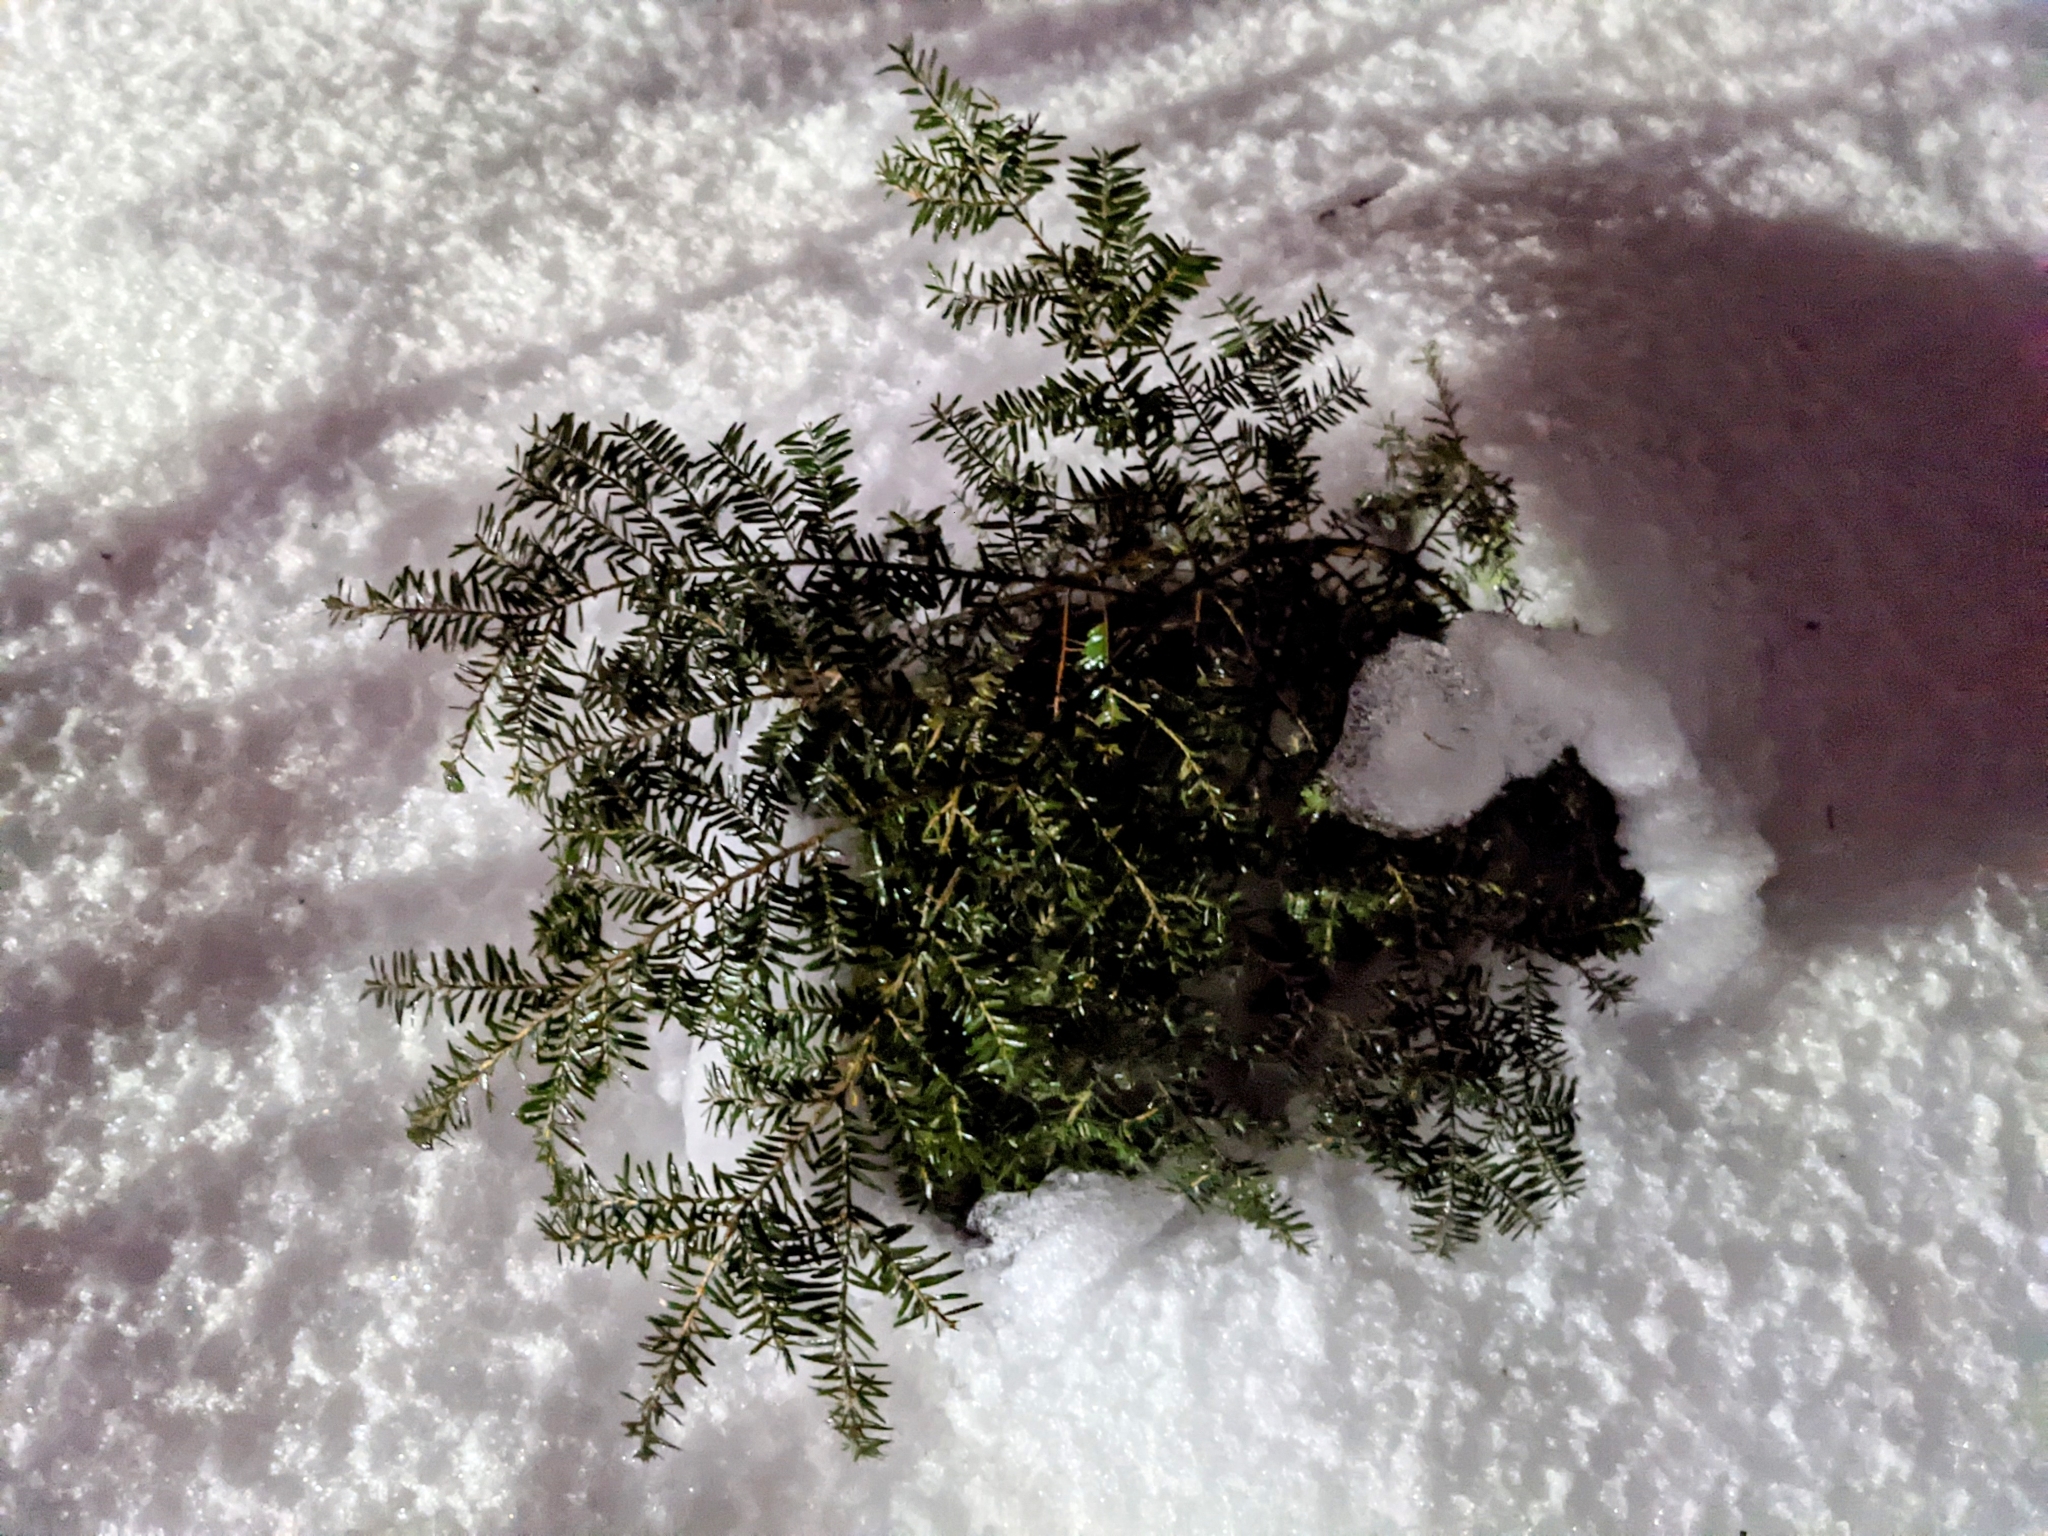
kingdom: Plantae
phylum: Tracheophyta
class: Pinopsida
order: Pinales
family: Pinaceae
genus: Tsuga
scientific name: Tsuga canadensis
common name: Eastern hemlock
